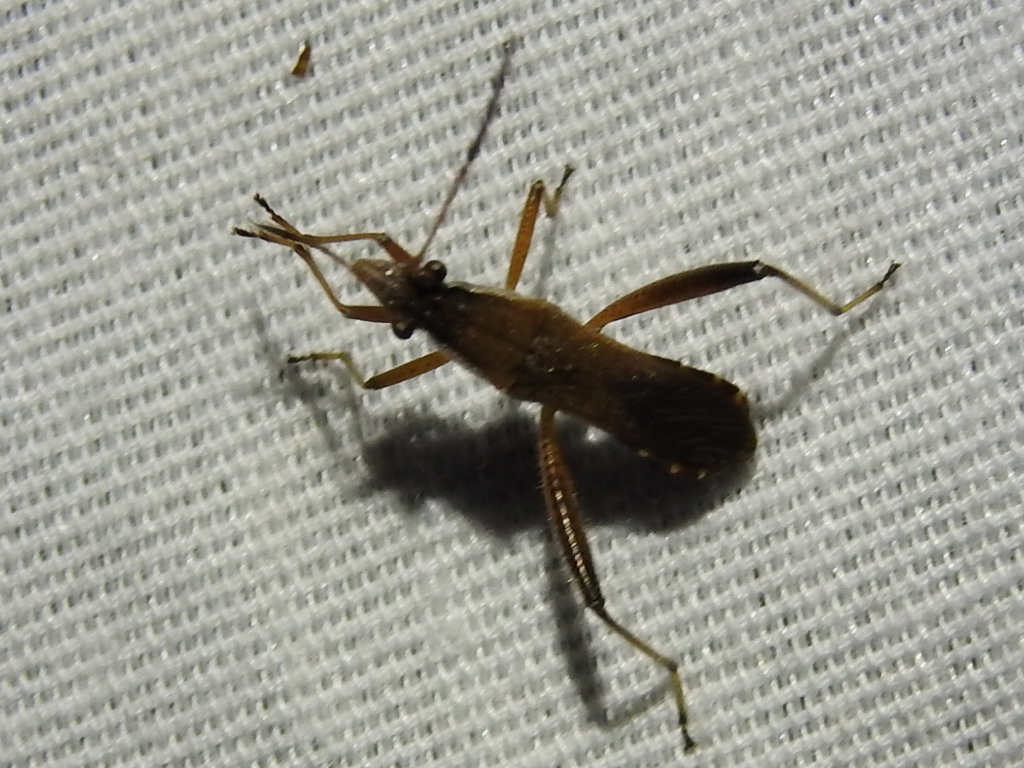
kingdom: Animalia
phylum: Arthropoda
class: Insecta
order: Hemiptera
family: Alydidae
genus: Alydus
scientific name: Alydus pilosulus
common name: Broad-headed bug
